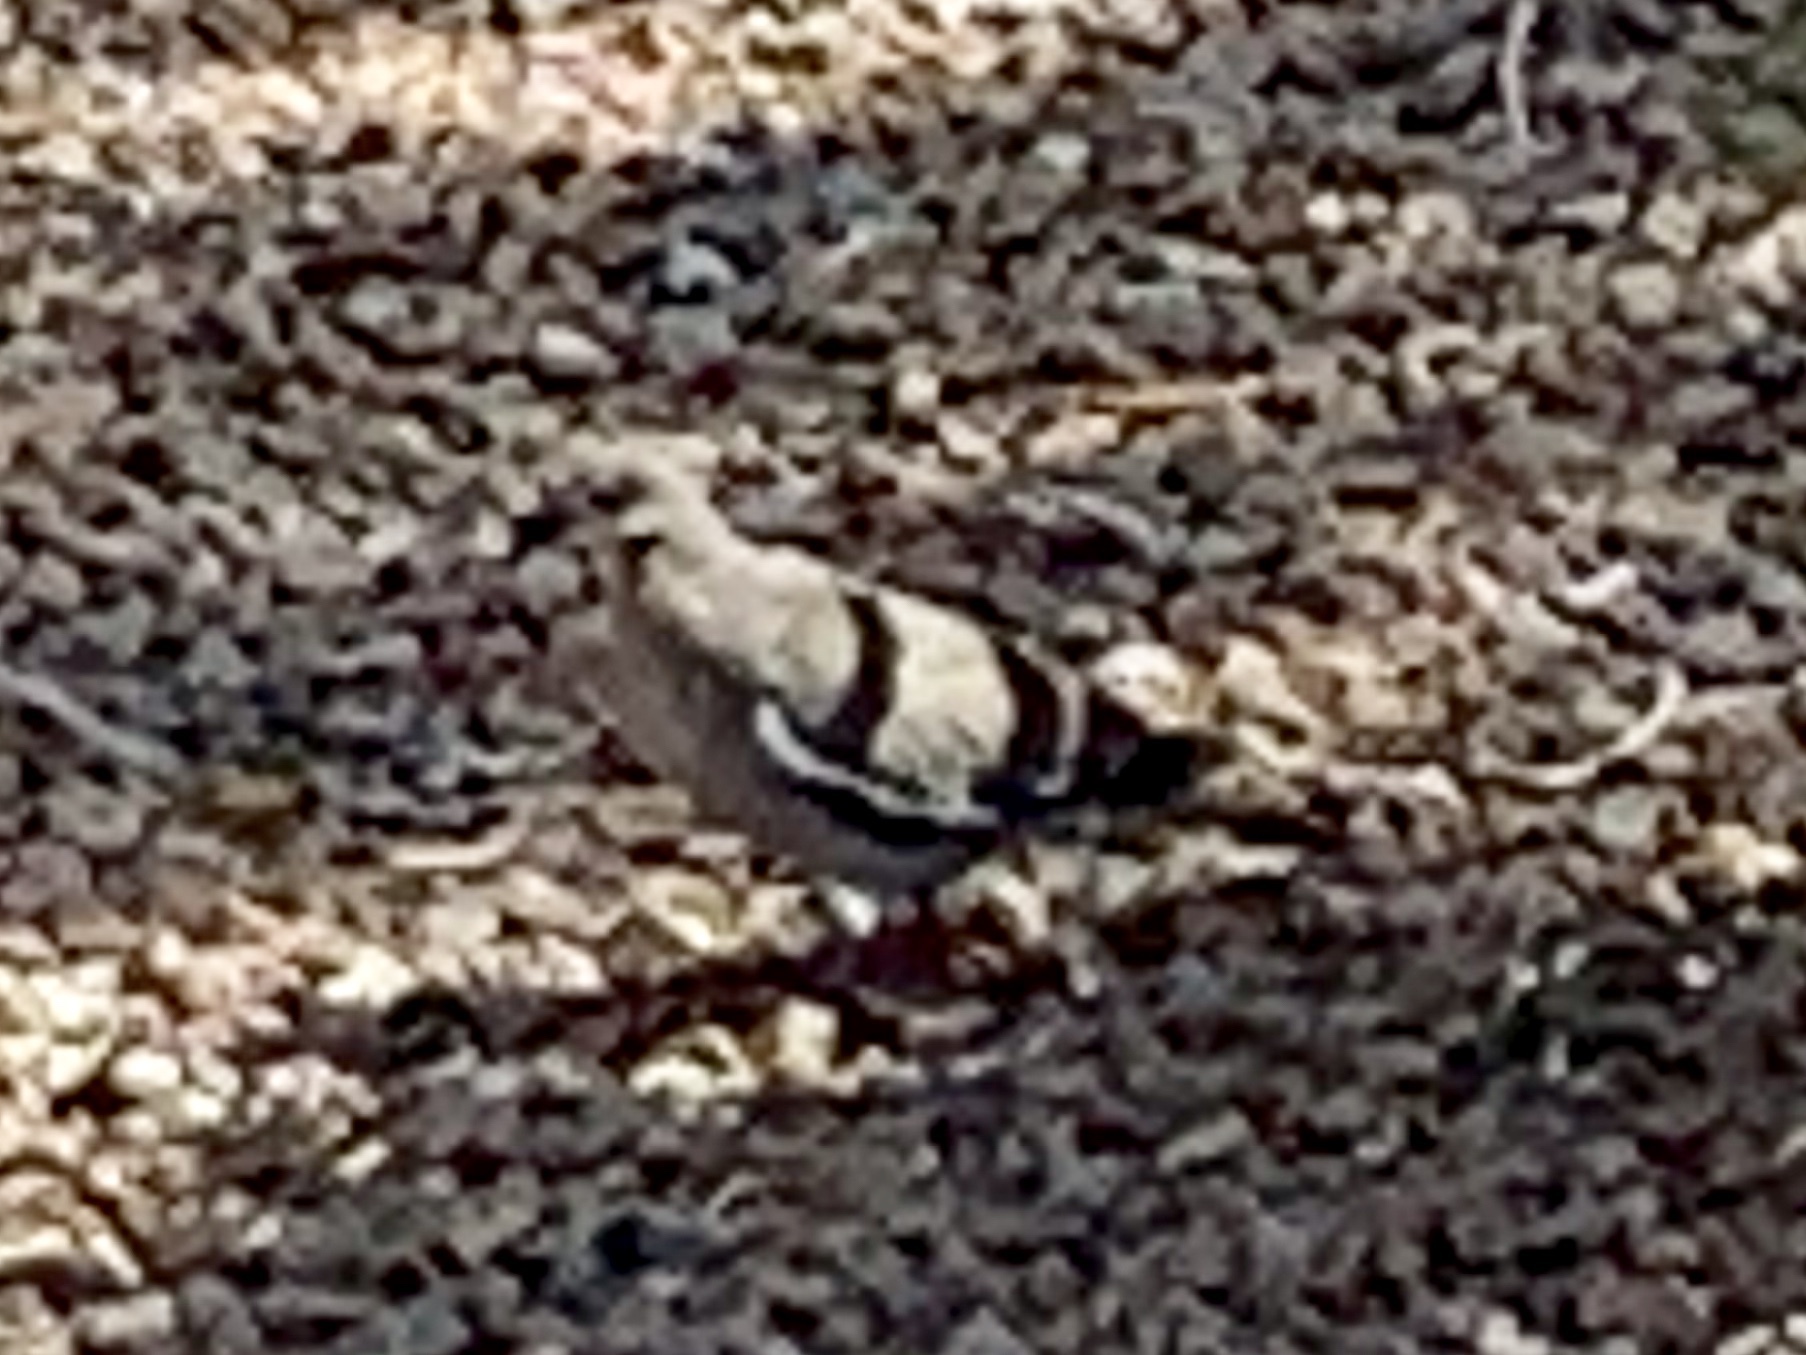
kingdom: Animalia
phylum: Chordata
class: Aves
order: Columbiformes
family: Columbidae
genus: Zenaida
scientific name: Zenaida asiatica
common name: White-winged dove
